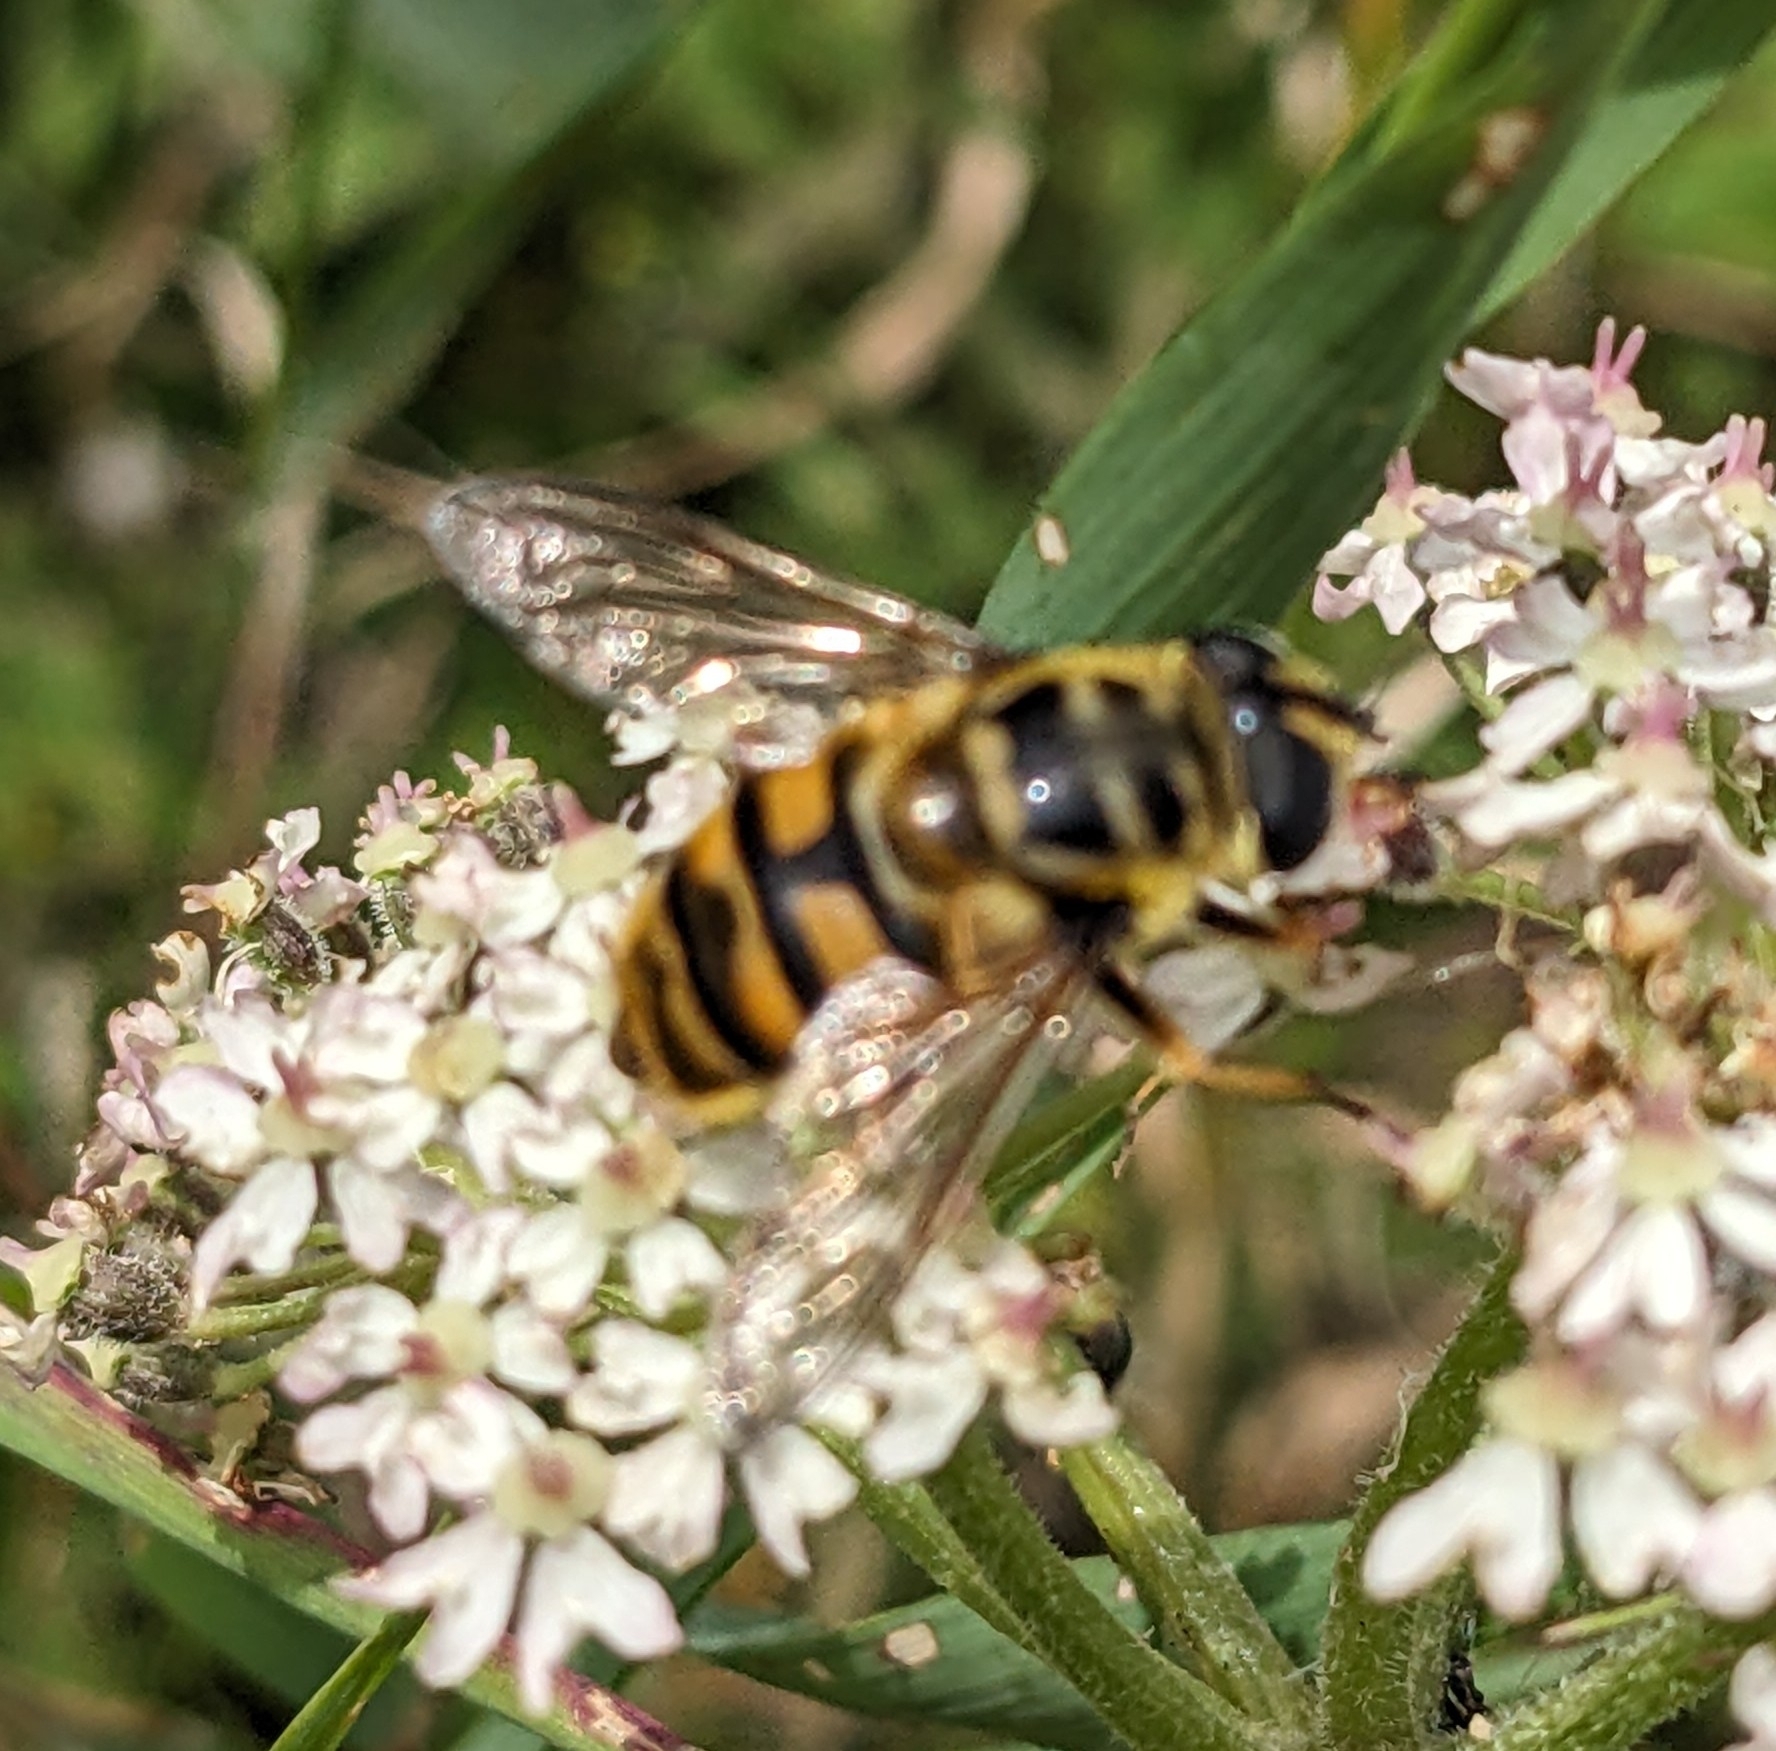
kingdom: Animalia
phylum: Arthropoda
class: Insecta
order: Diptera
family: Syrphidae
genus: Myathropa
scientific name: Myathropa florea
